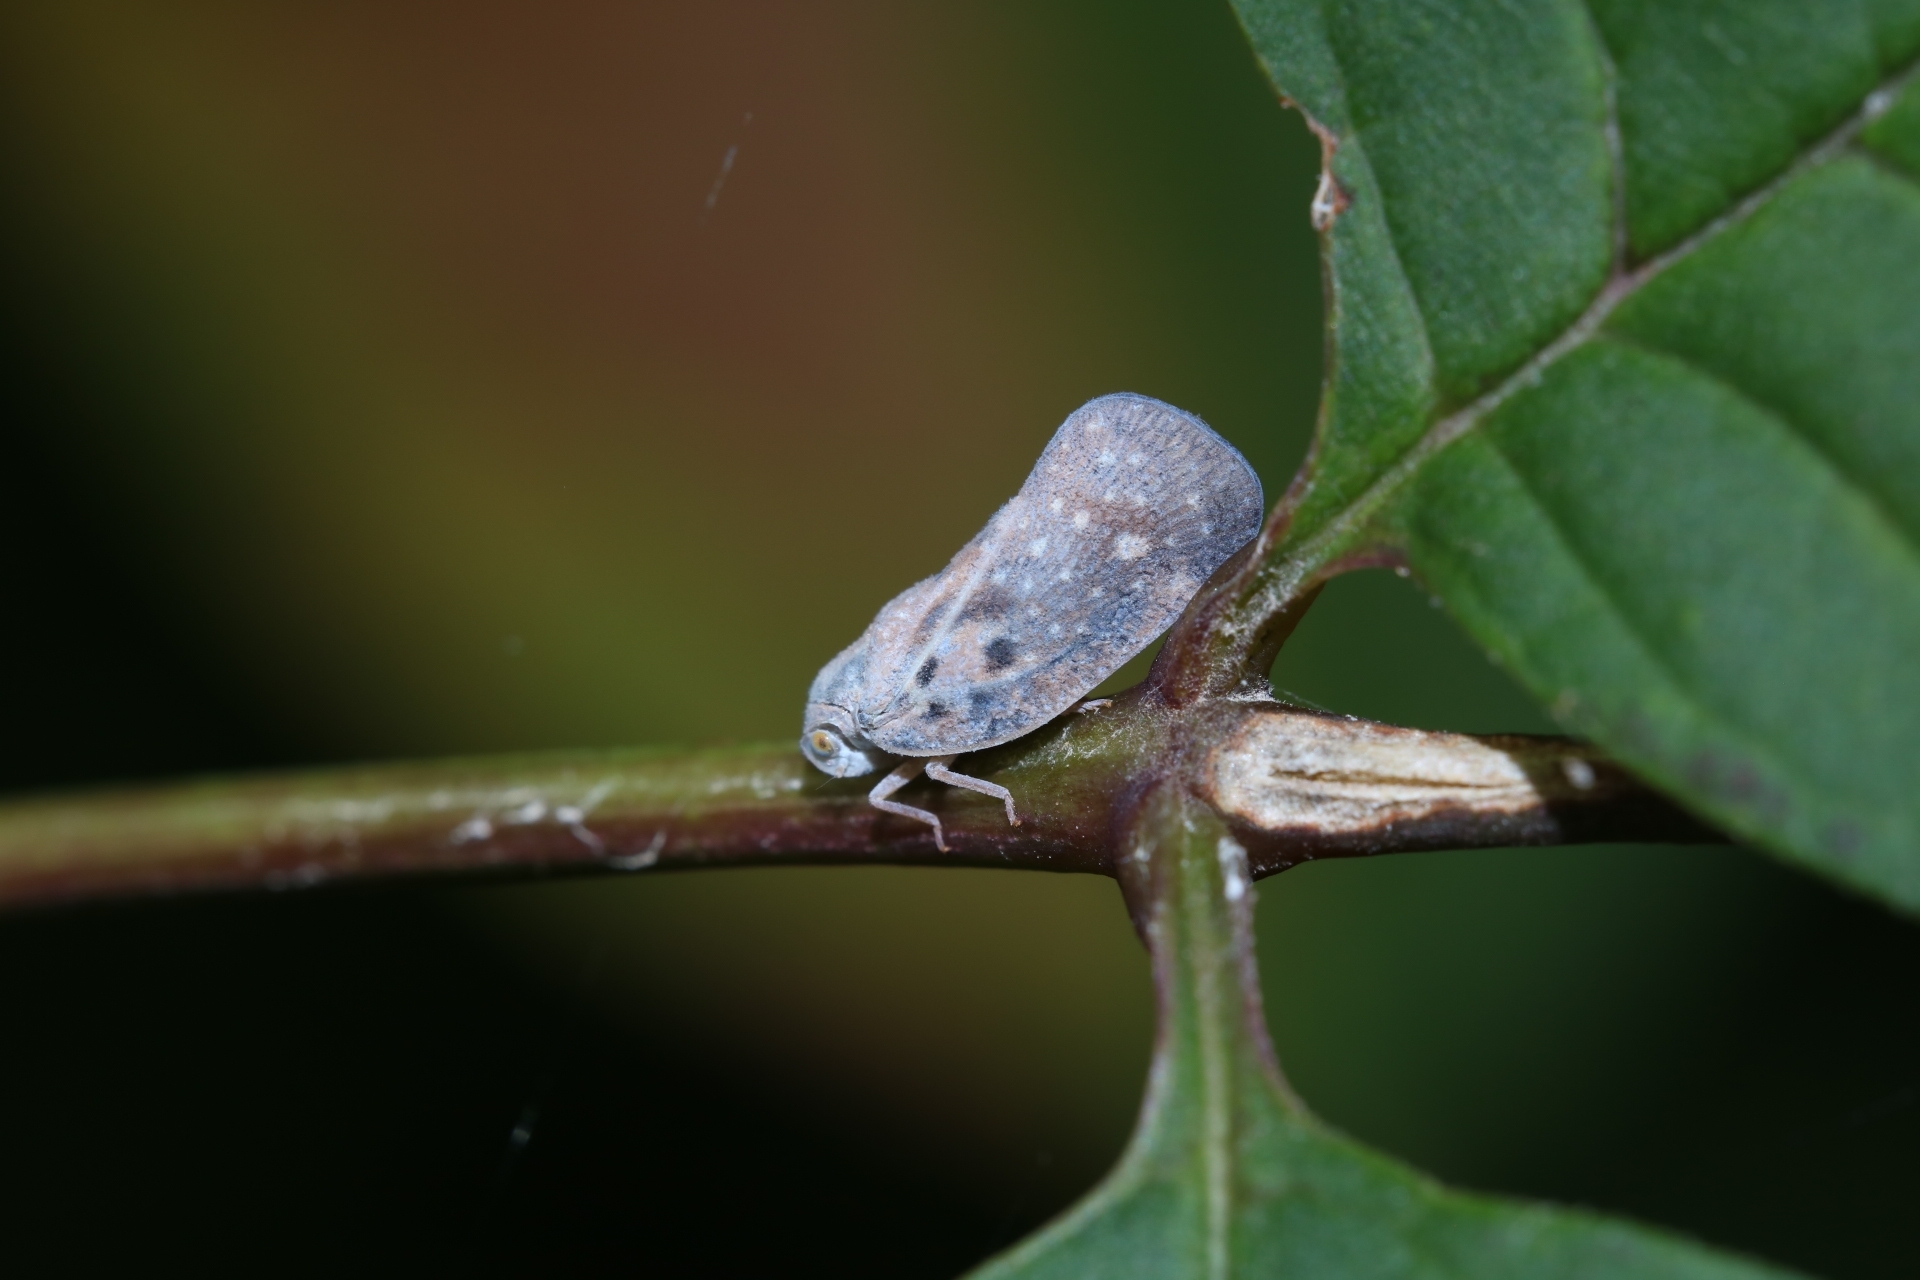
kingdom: Animalia
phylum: Arthropoda
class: Insecta
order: Hemiptera
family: Flatidae
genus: Metcalfa
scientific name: Metcalfa pruinosa
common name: Citrus flatid planthopper
